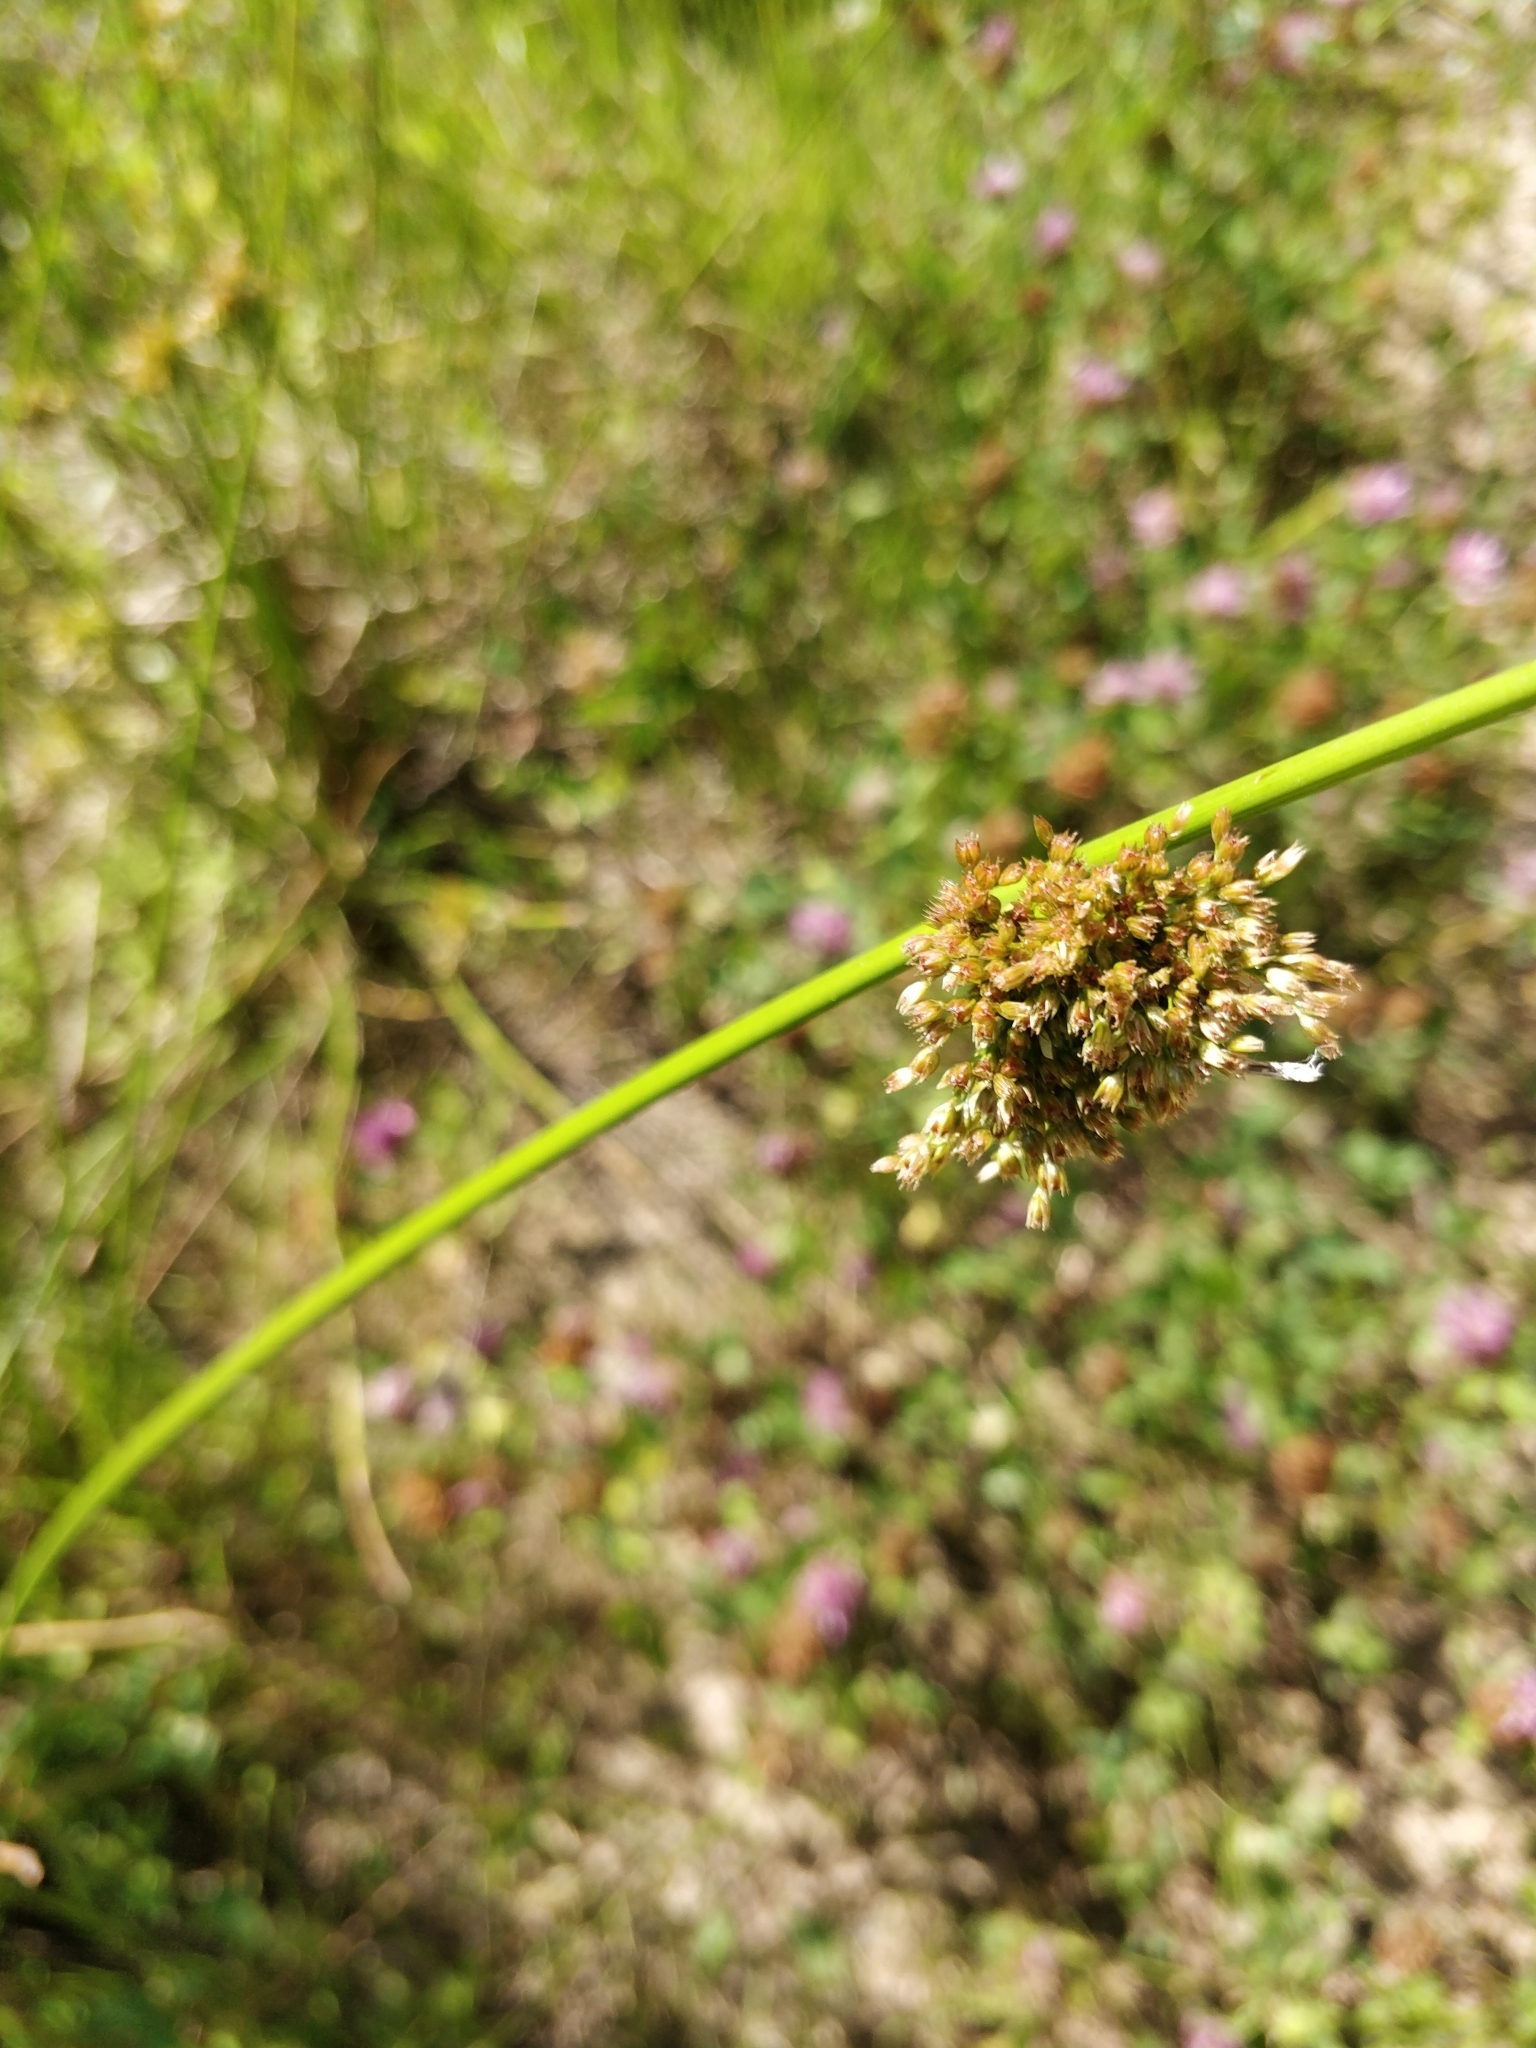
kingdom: Plantae
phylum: Tracheophyta
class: Liliopsida
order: Poales
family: Juncaceae
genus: Juncus
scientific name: Juncus effusus
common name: Soft rush
